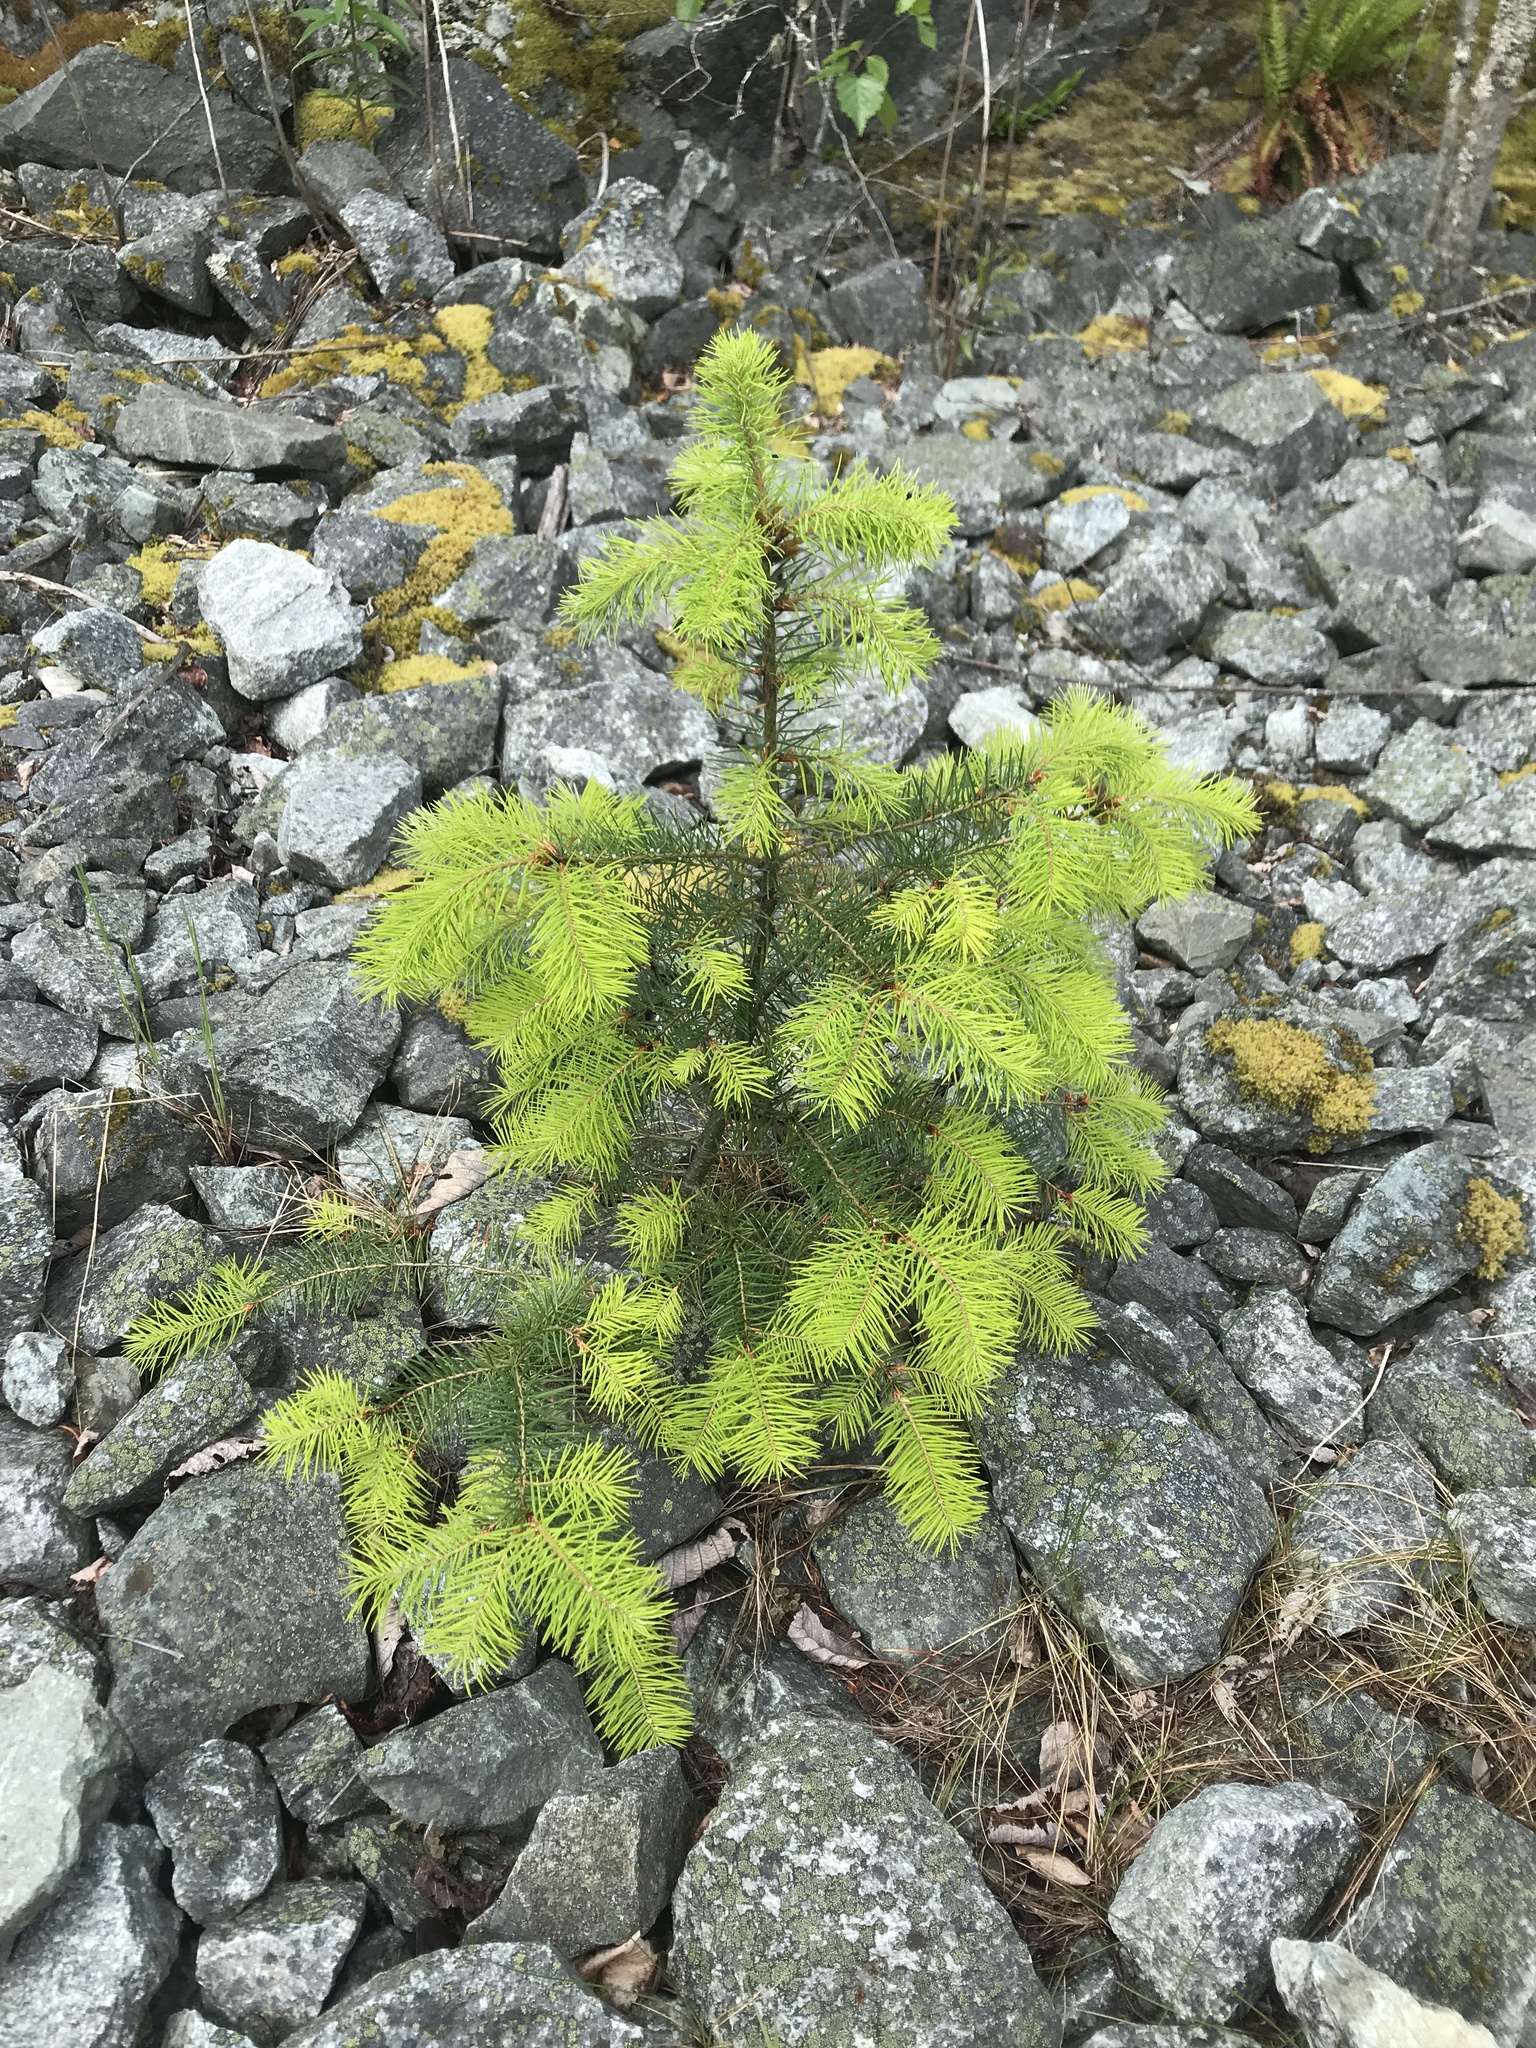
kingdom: Plantae
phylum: Tracheophyta
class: Pinopsida
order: Pinales
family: Pinaceae
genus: Pseudotsuga
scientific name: Pseudotsuga menziesii
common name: Douglas fir
